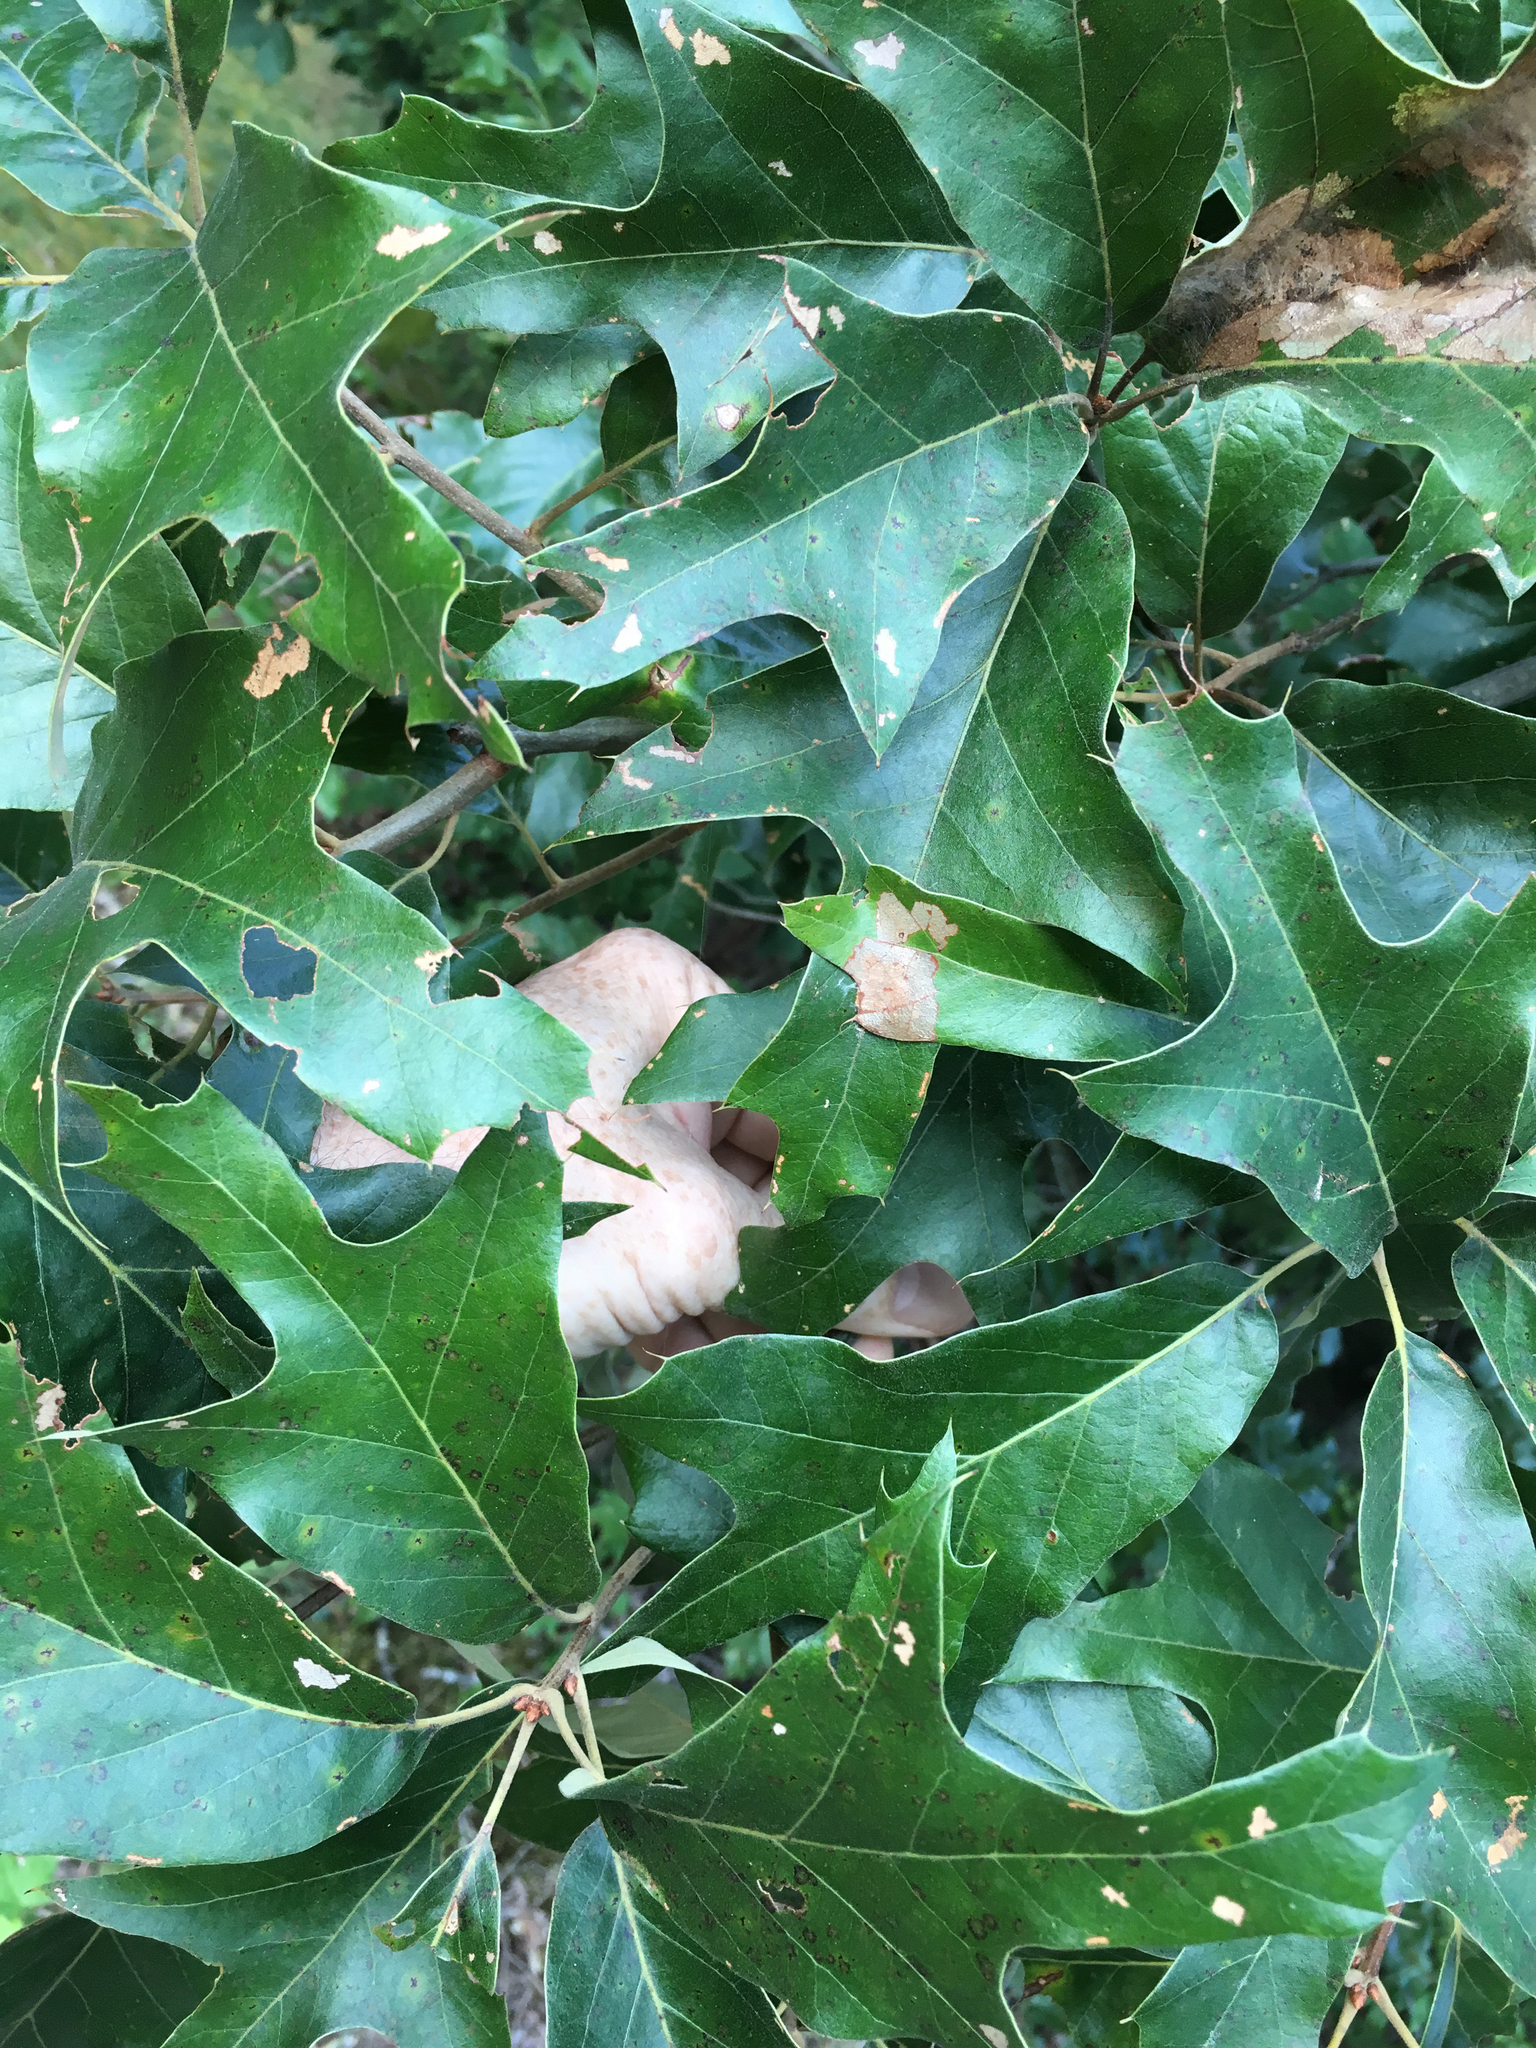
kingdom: Plantae
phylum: Tracheophyta
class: Magnoliopsida
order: Fagales
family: Fagaceae
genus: Quercus
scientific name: Quercus falcata
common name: Southern red oak
